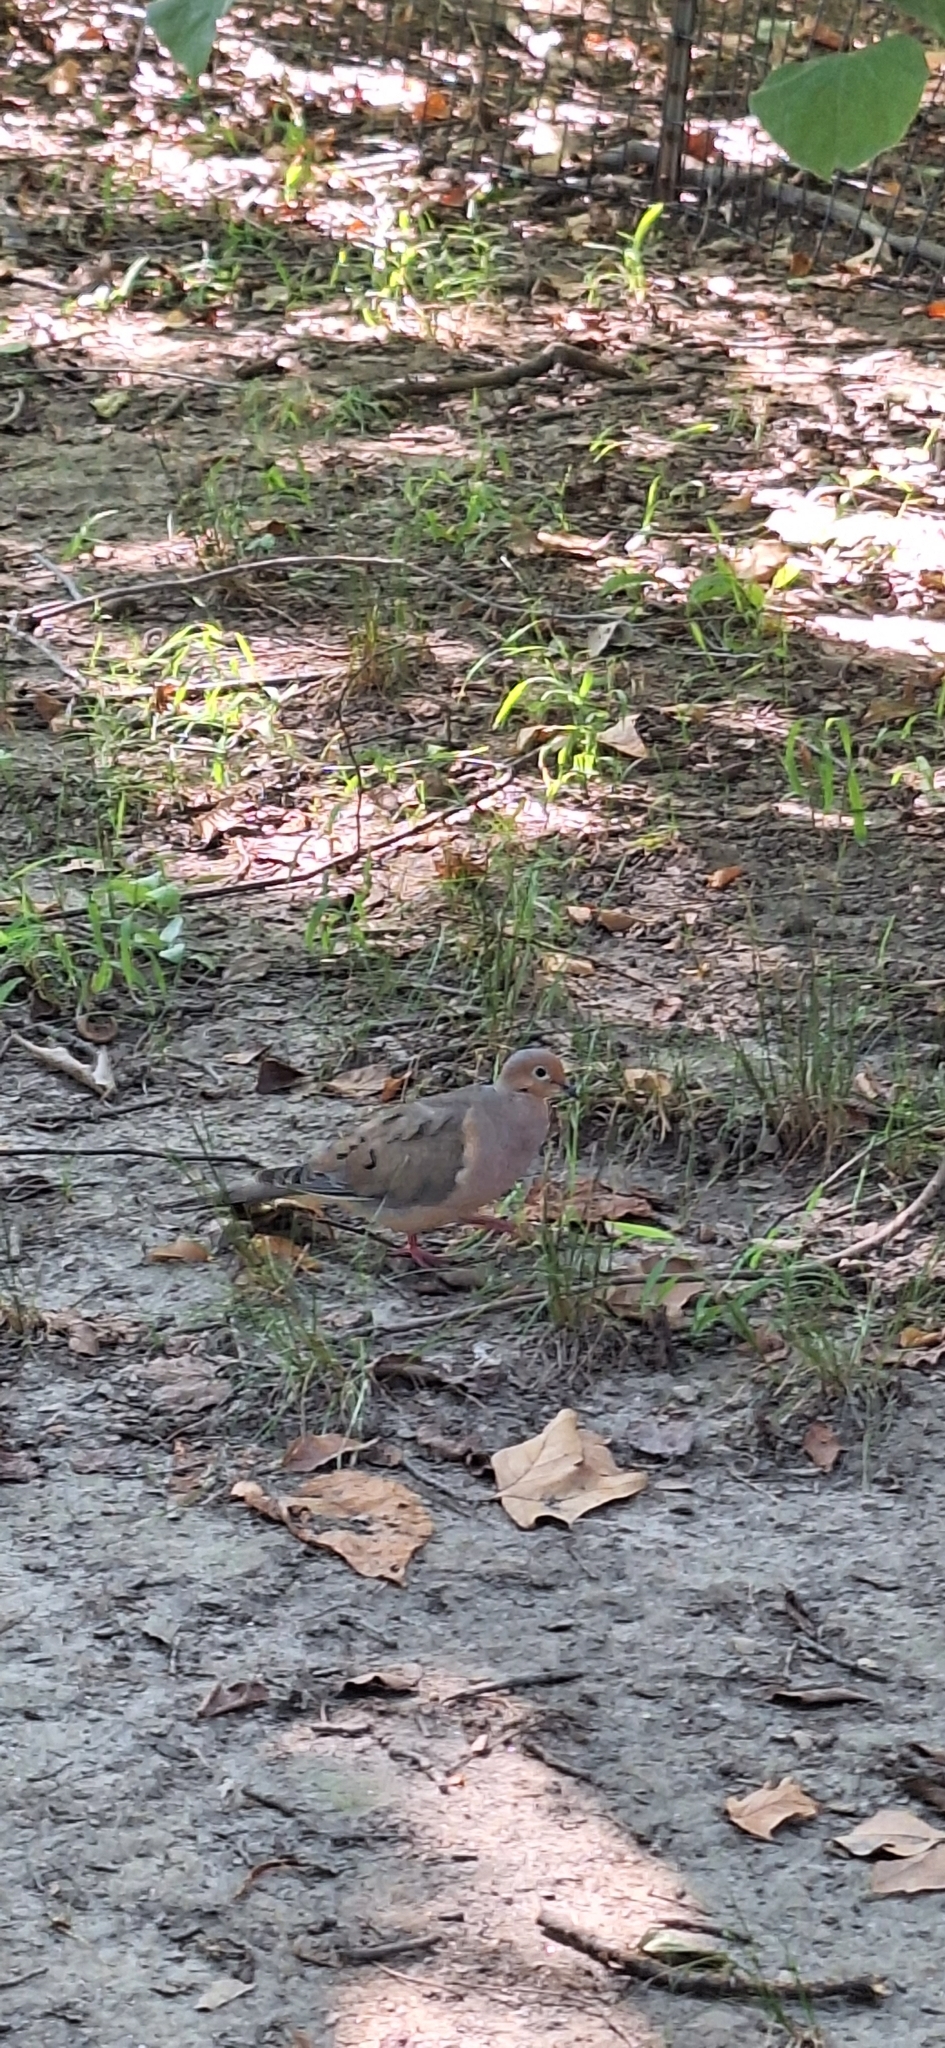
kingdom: Animalia
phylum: Chordata
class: Aves
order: Columbiformes
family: Columbidae
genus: Zenaida
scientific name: Zenaida macroura
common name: Mourning dove
